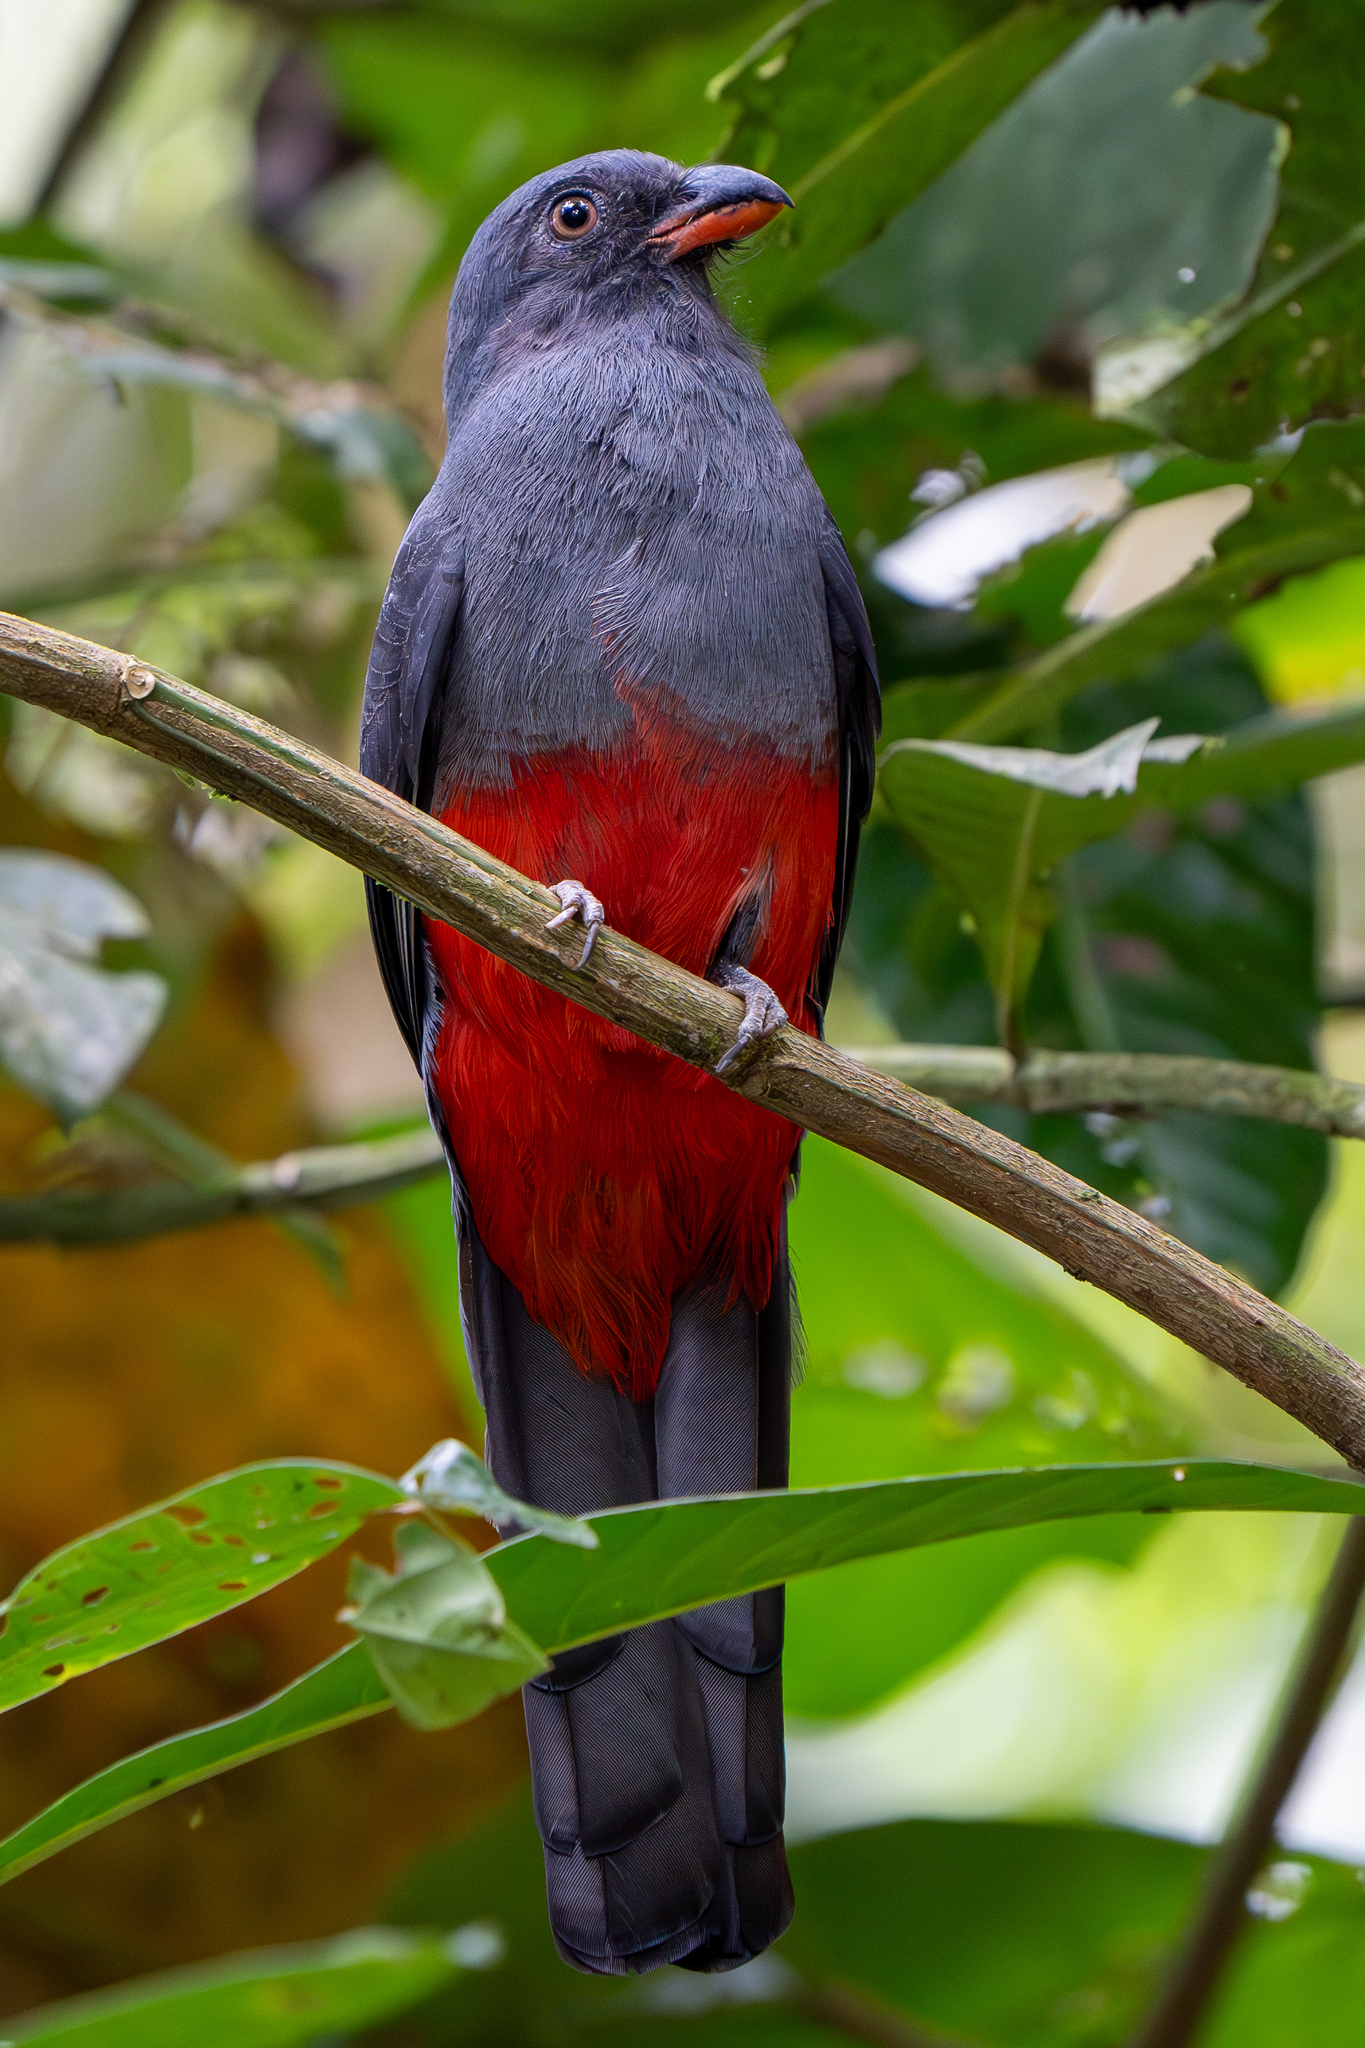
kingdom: Animalia
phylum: Chordata
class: Aves
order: Trogoniformes
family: Trogonidae
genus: Trogon
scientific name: Trogon massena
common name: Slaty-tailed trogon
